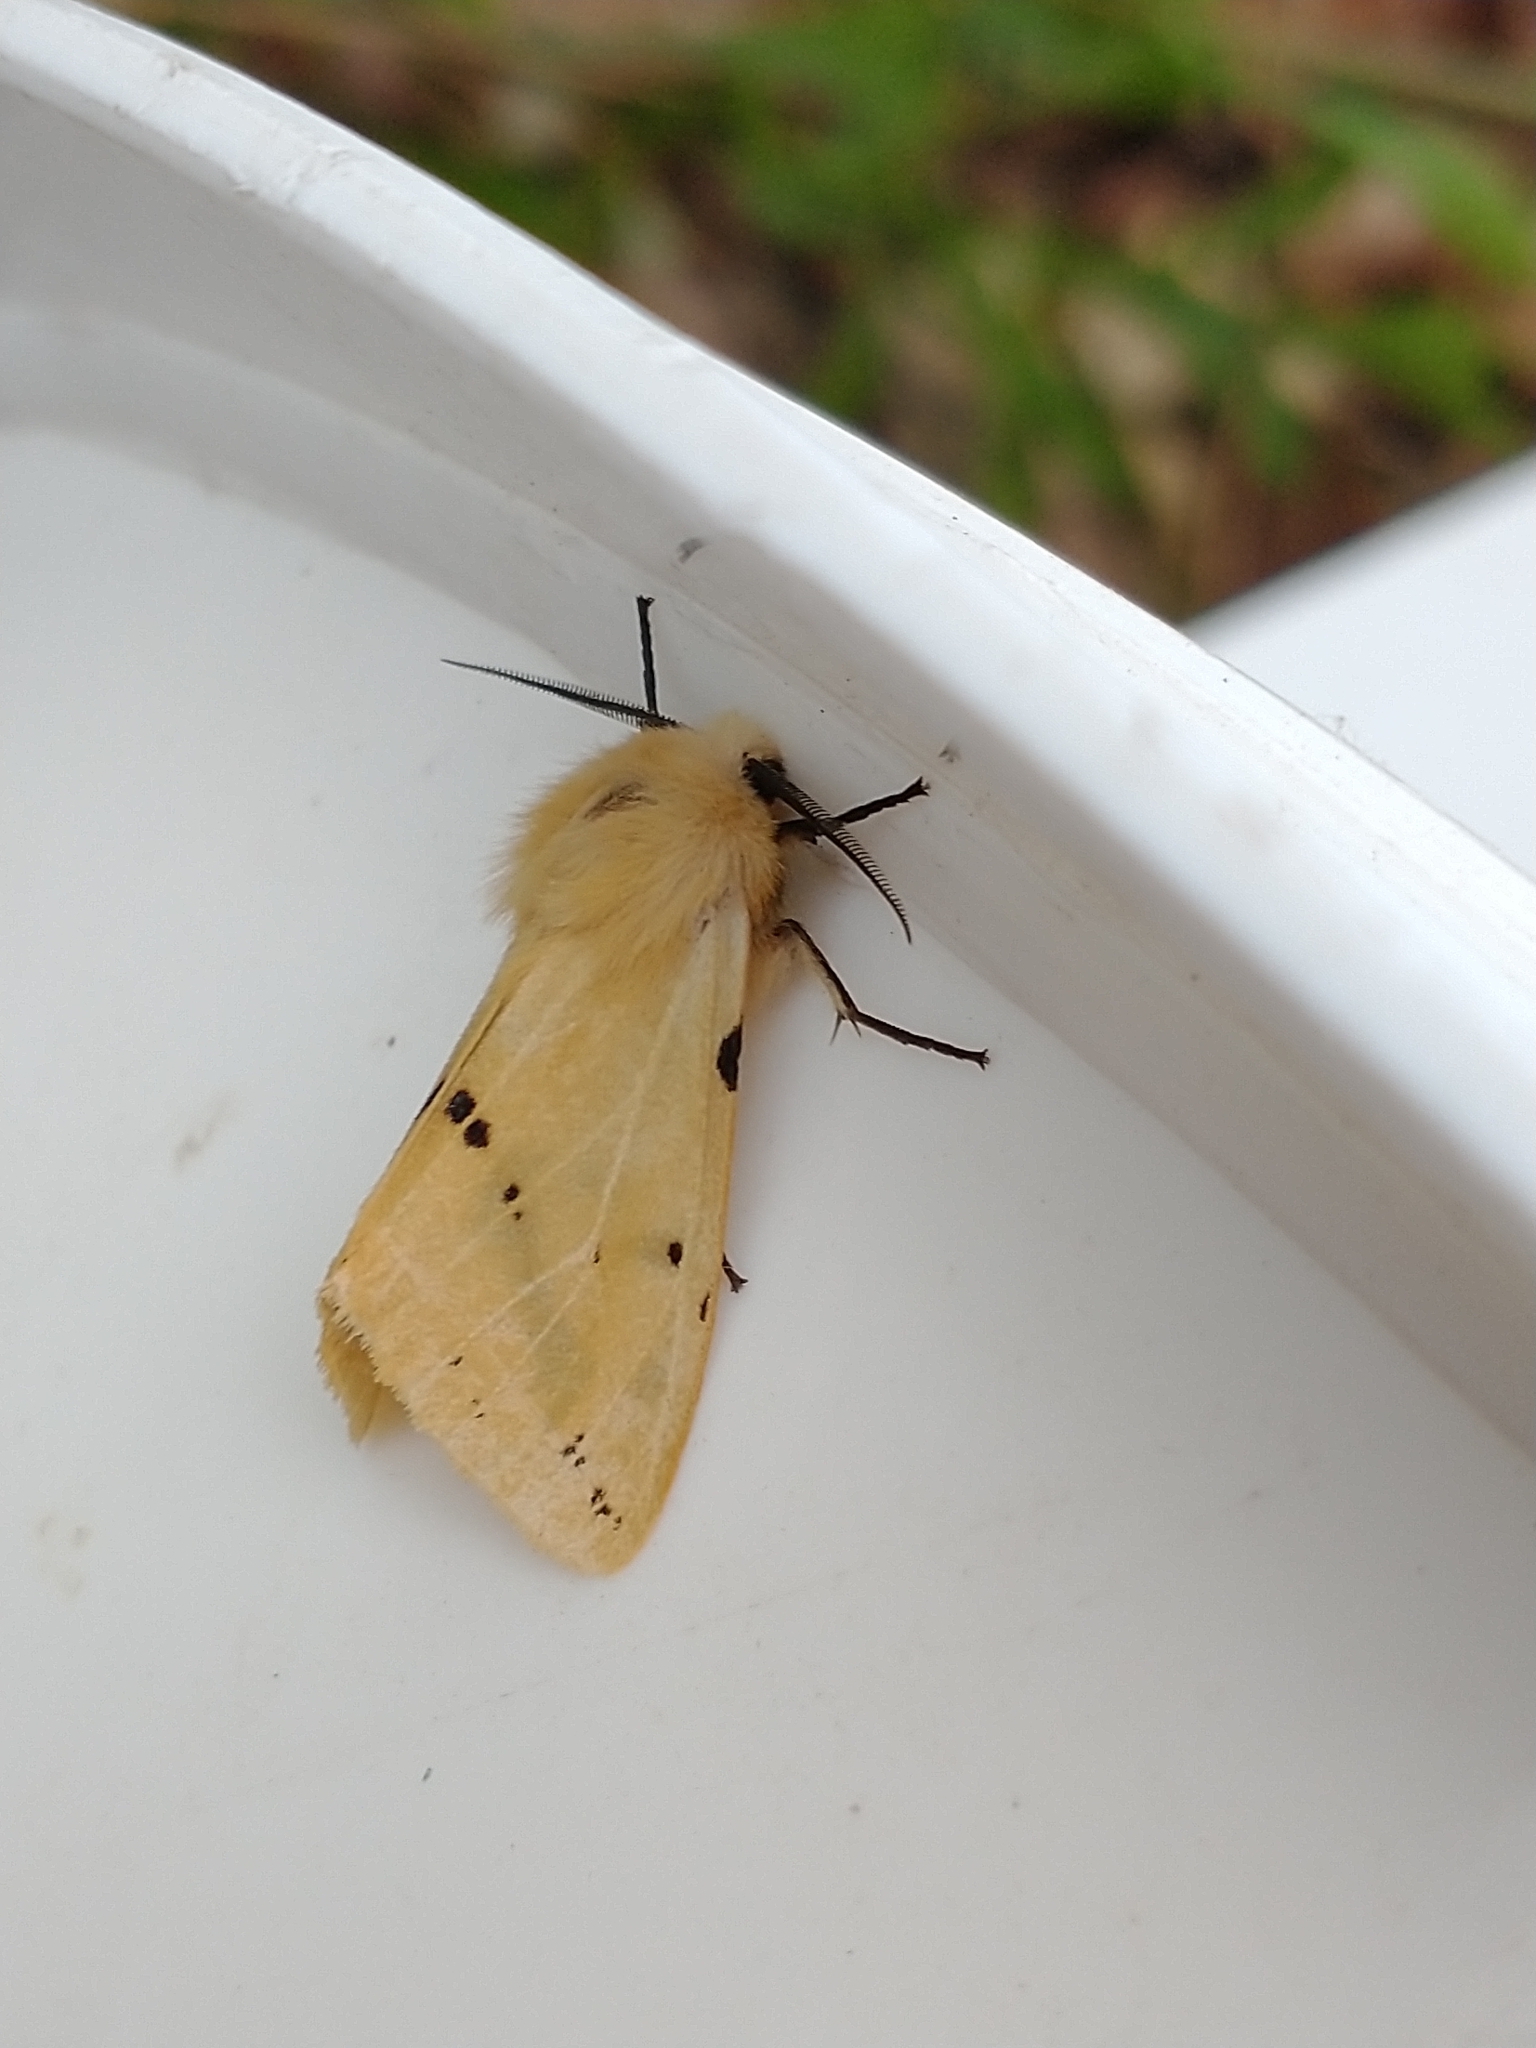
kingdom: Animalia
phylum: Arthropoda
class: Insecta
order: Lepidoptera
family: Erebidae
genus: Spilarctia
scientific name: Spilarctia lutea
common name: Buff ermine
